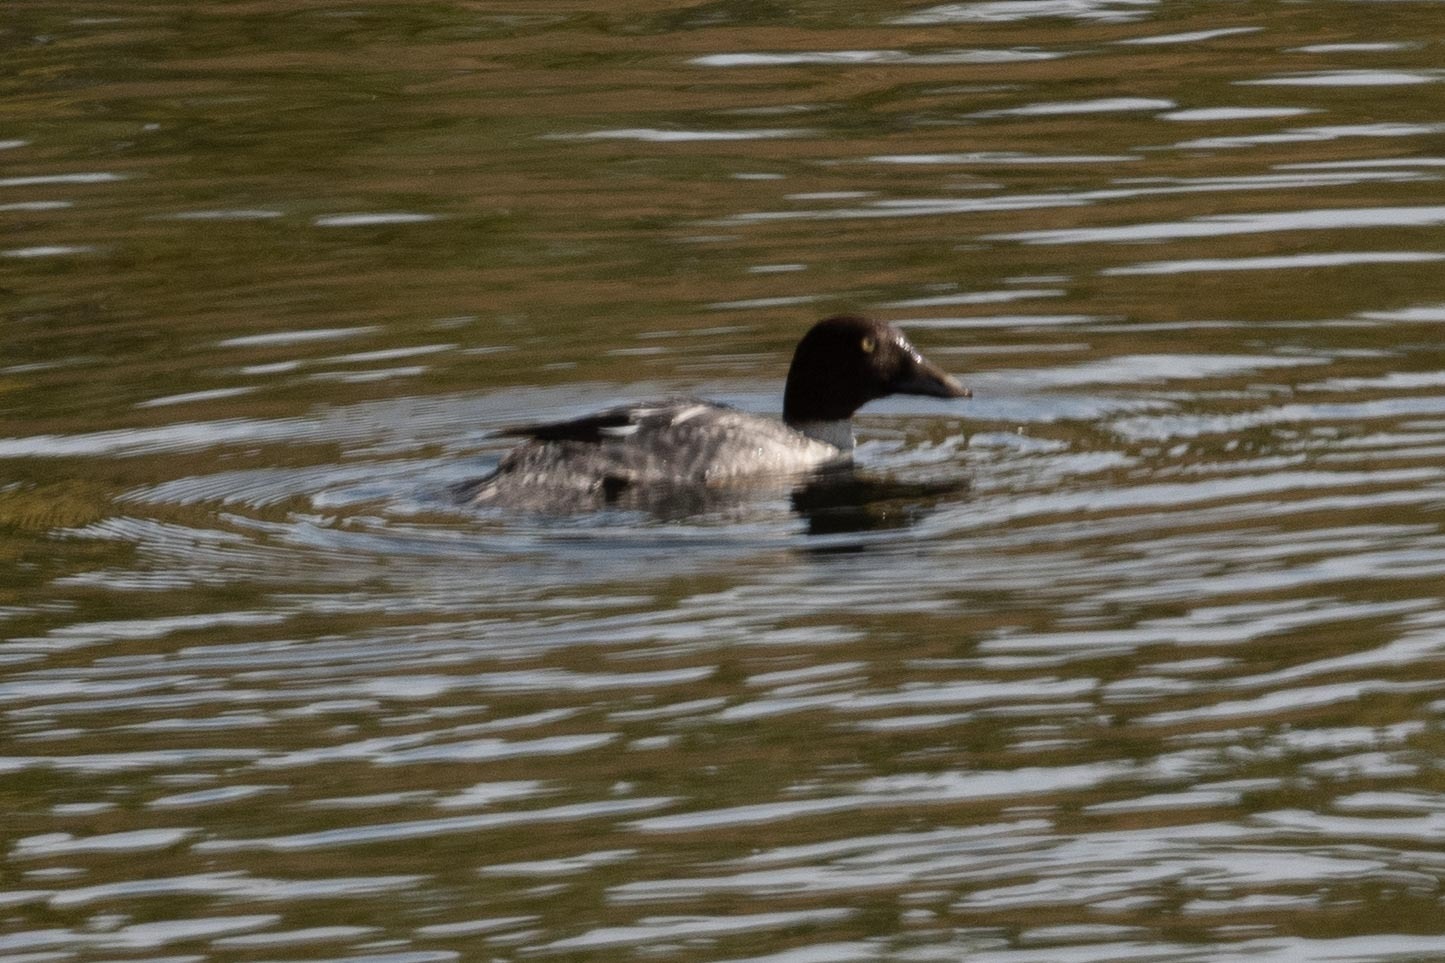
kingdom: Animalia
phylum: Chordata
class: Aves
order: Anseriformes
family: Anatidae
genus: Bucephala
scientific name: Bucephala clangula
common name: Common goldeneye
